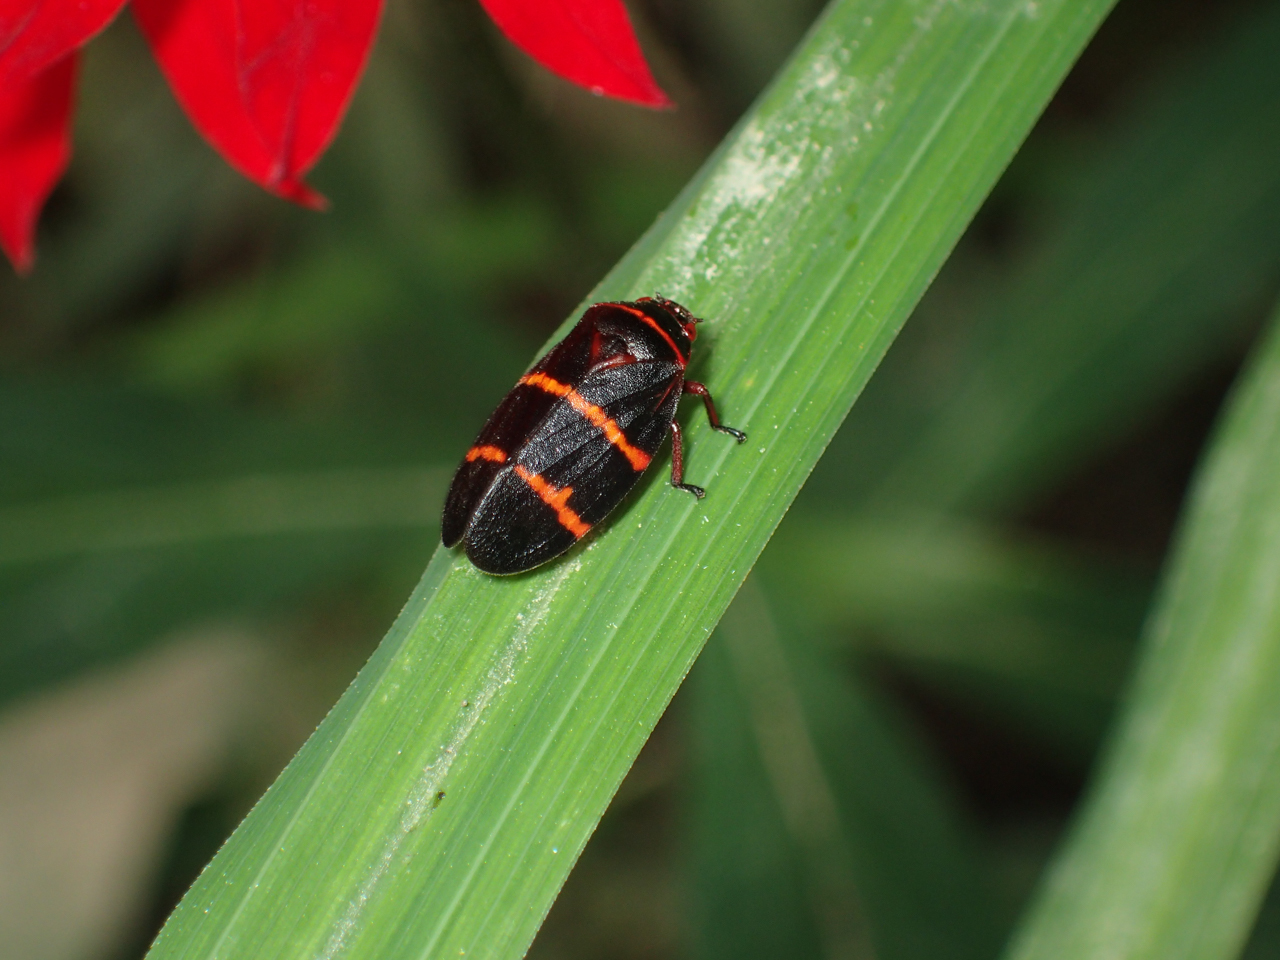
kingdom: Animalia
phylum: Arthropoda
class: Insecta
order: Hemiptera
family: Cercopidae
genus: Prosapia
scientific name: Prosapia bicincta
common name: Twolined spittlebug
